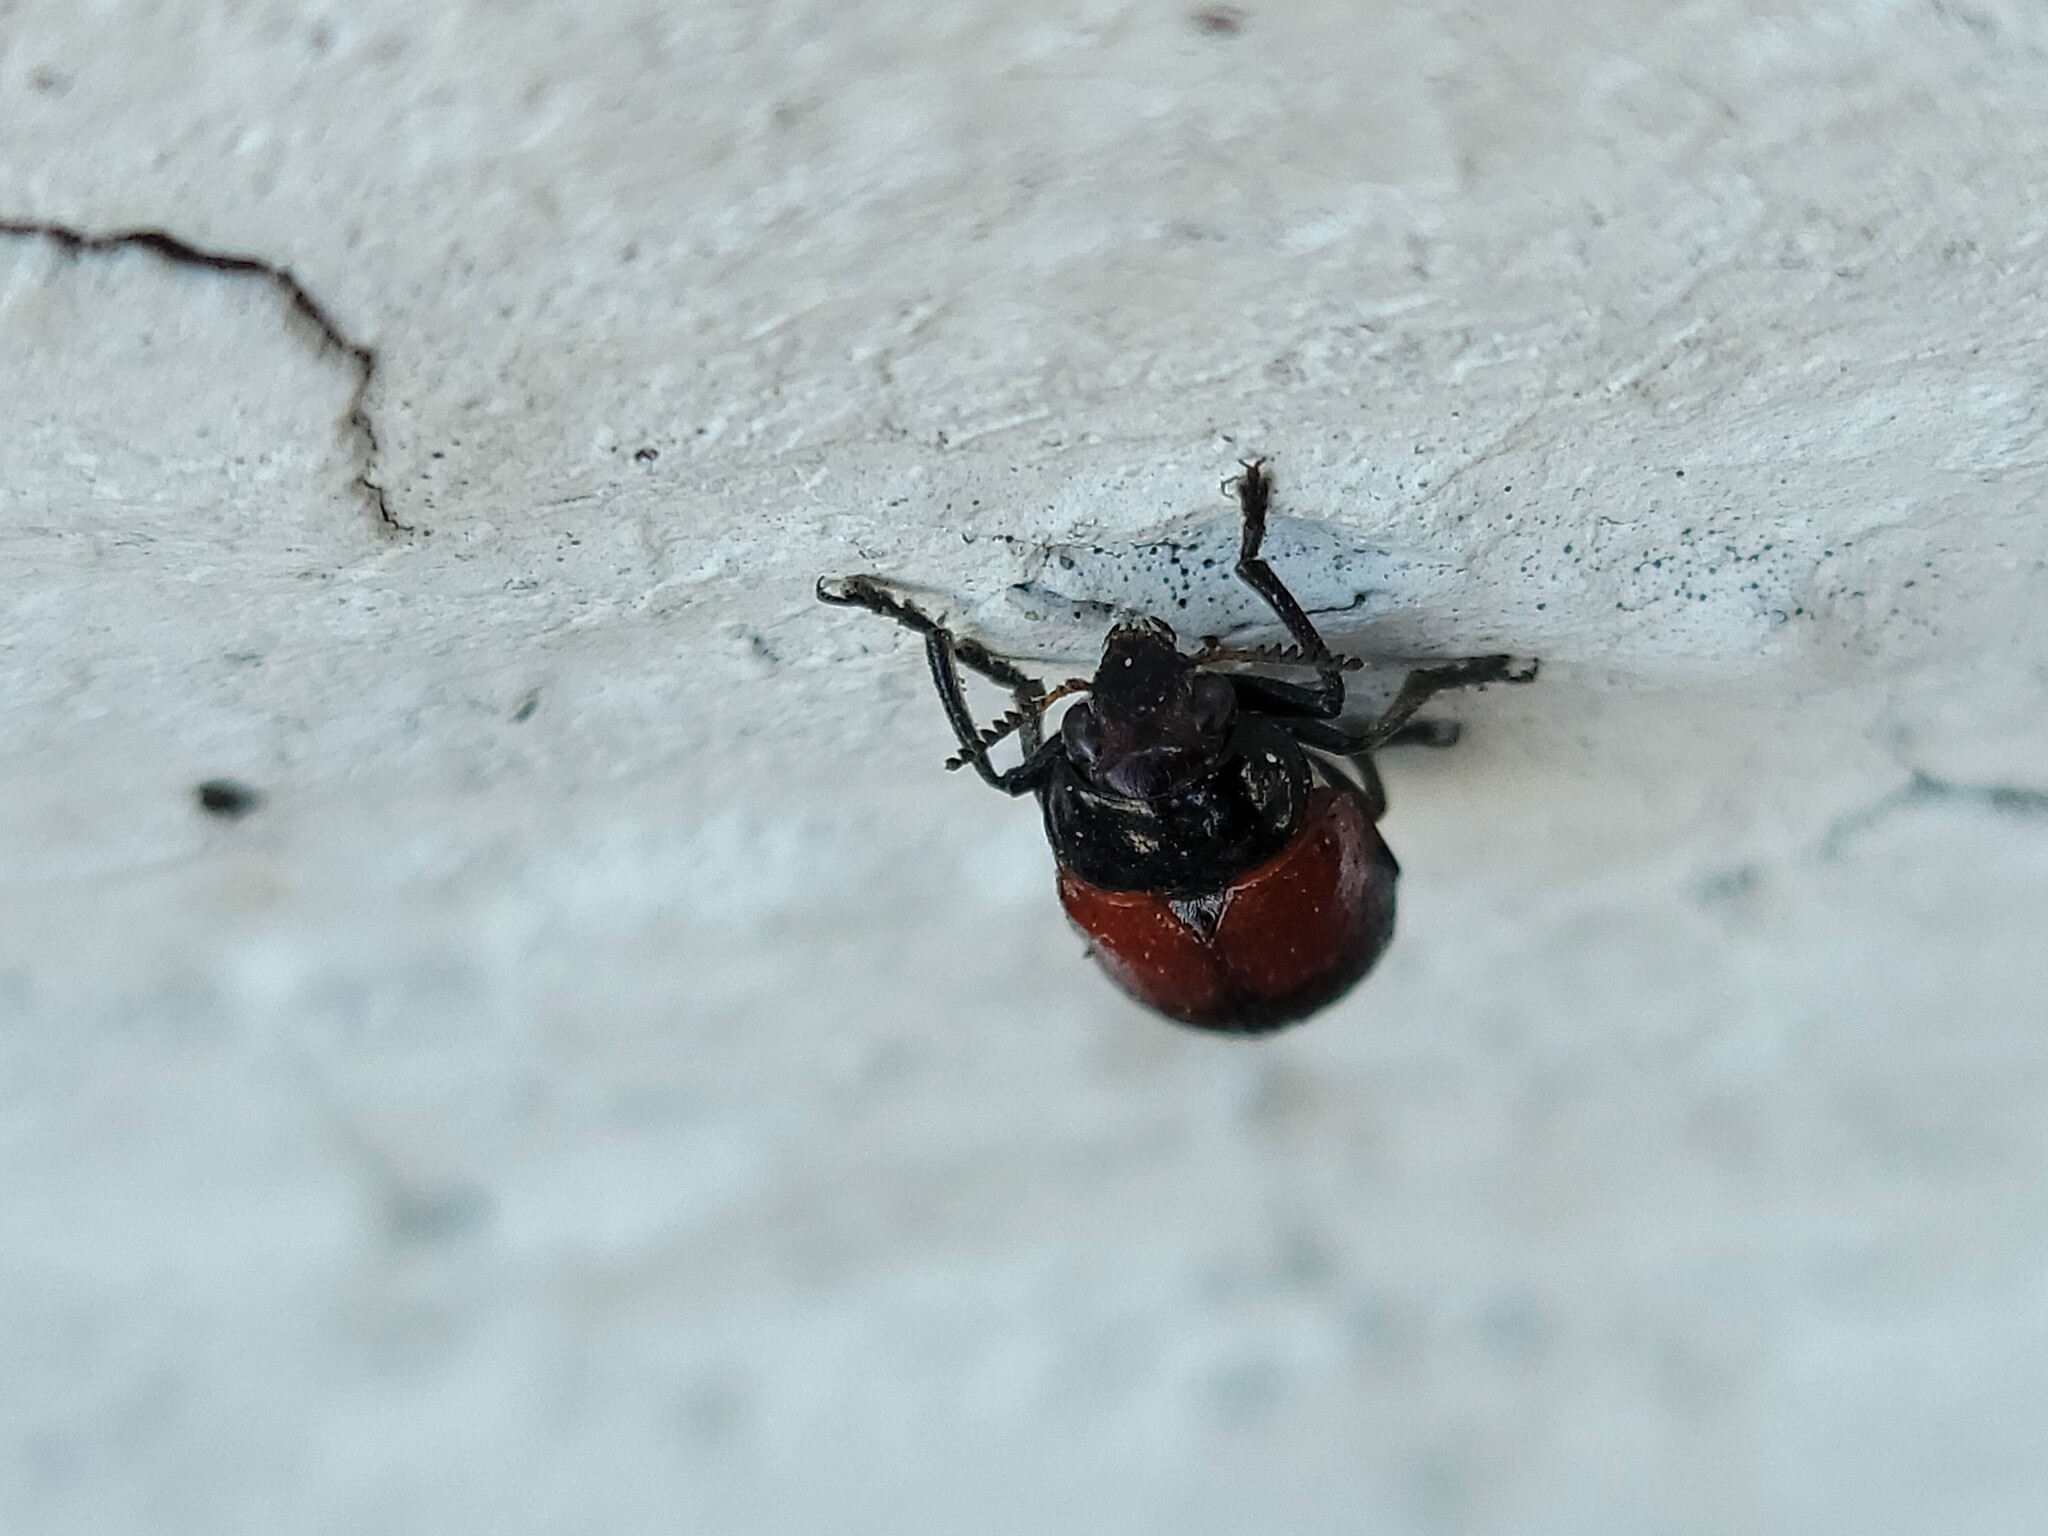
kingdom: Animalia
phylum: Arthropoda
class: Insecta
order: Coleoptera
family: Chrysomelidae
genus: Anomoea
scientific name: Anomoea rufifrons
